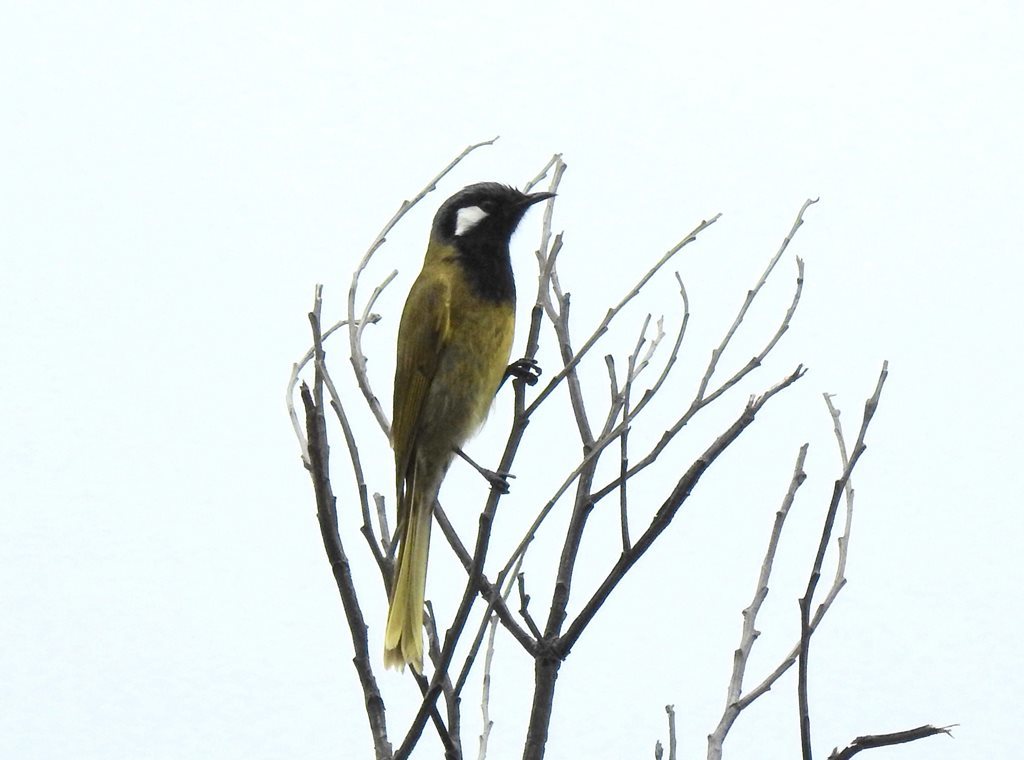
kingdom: Animalia
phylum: Chordata
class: Aves
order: Passeriformes
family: Meliphagidae
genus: Nesoptilotis
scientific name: Nesoptilotis leucotis
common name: White-eared honeyeater
